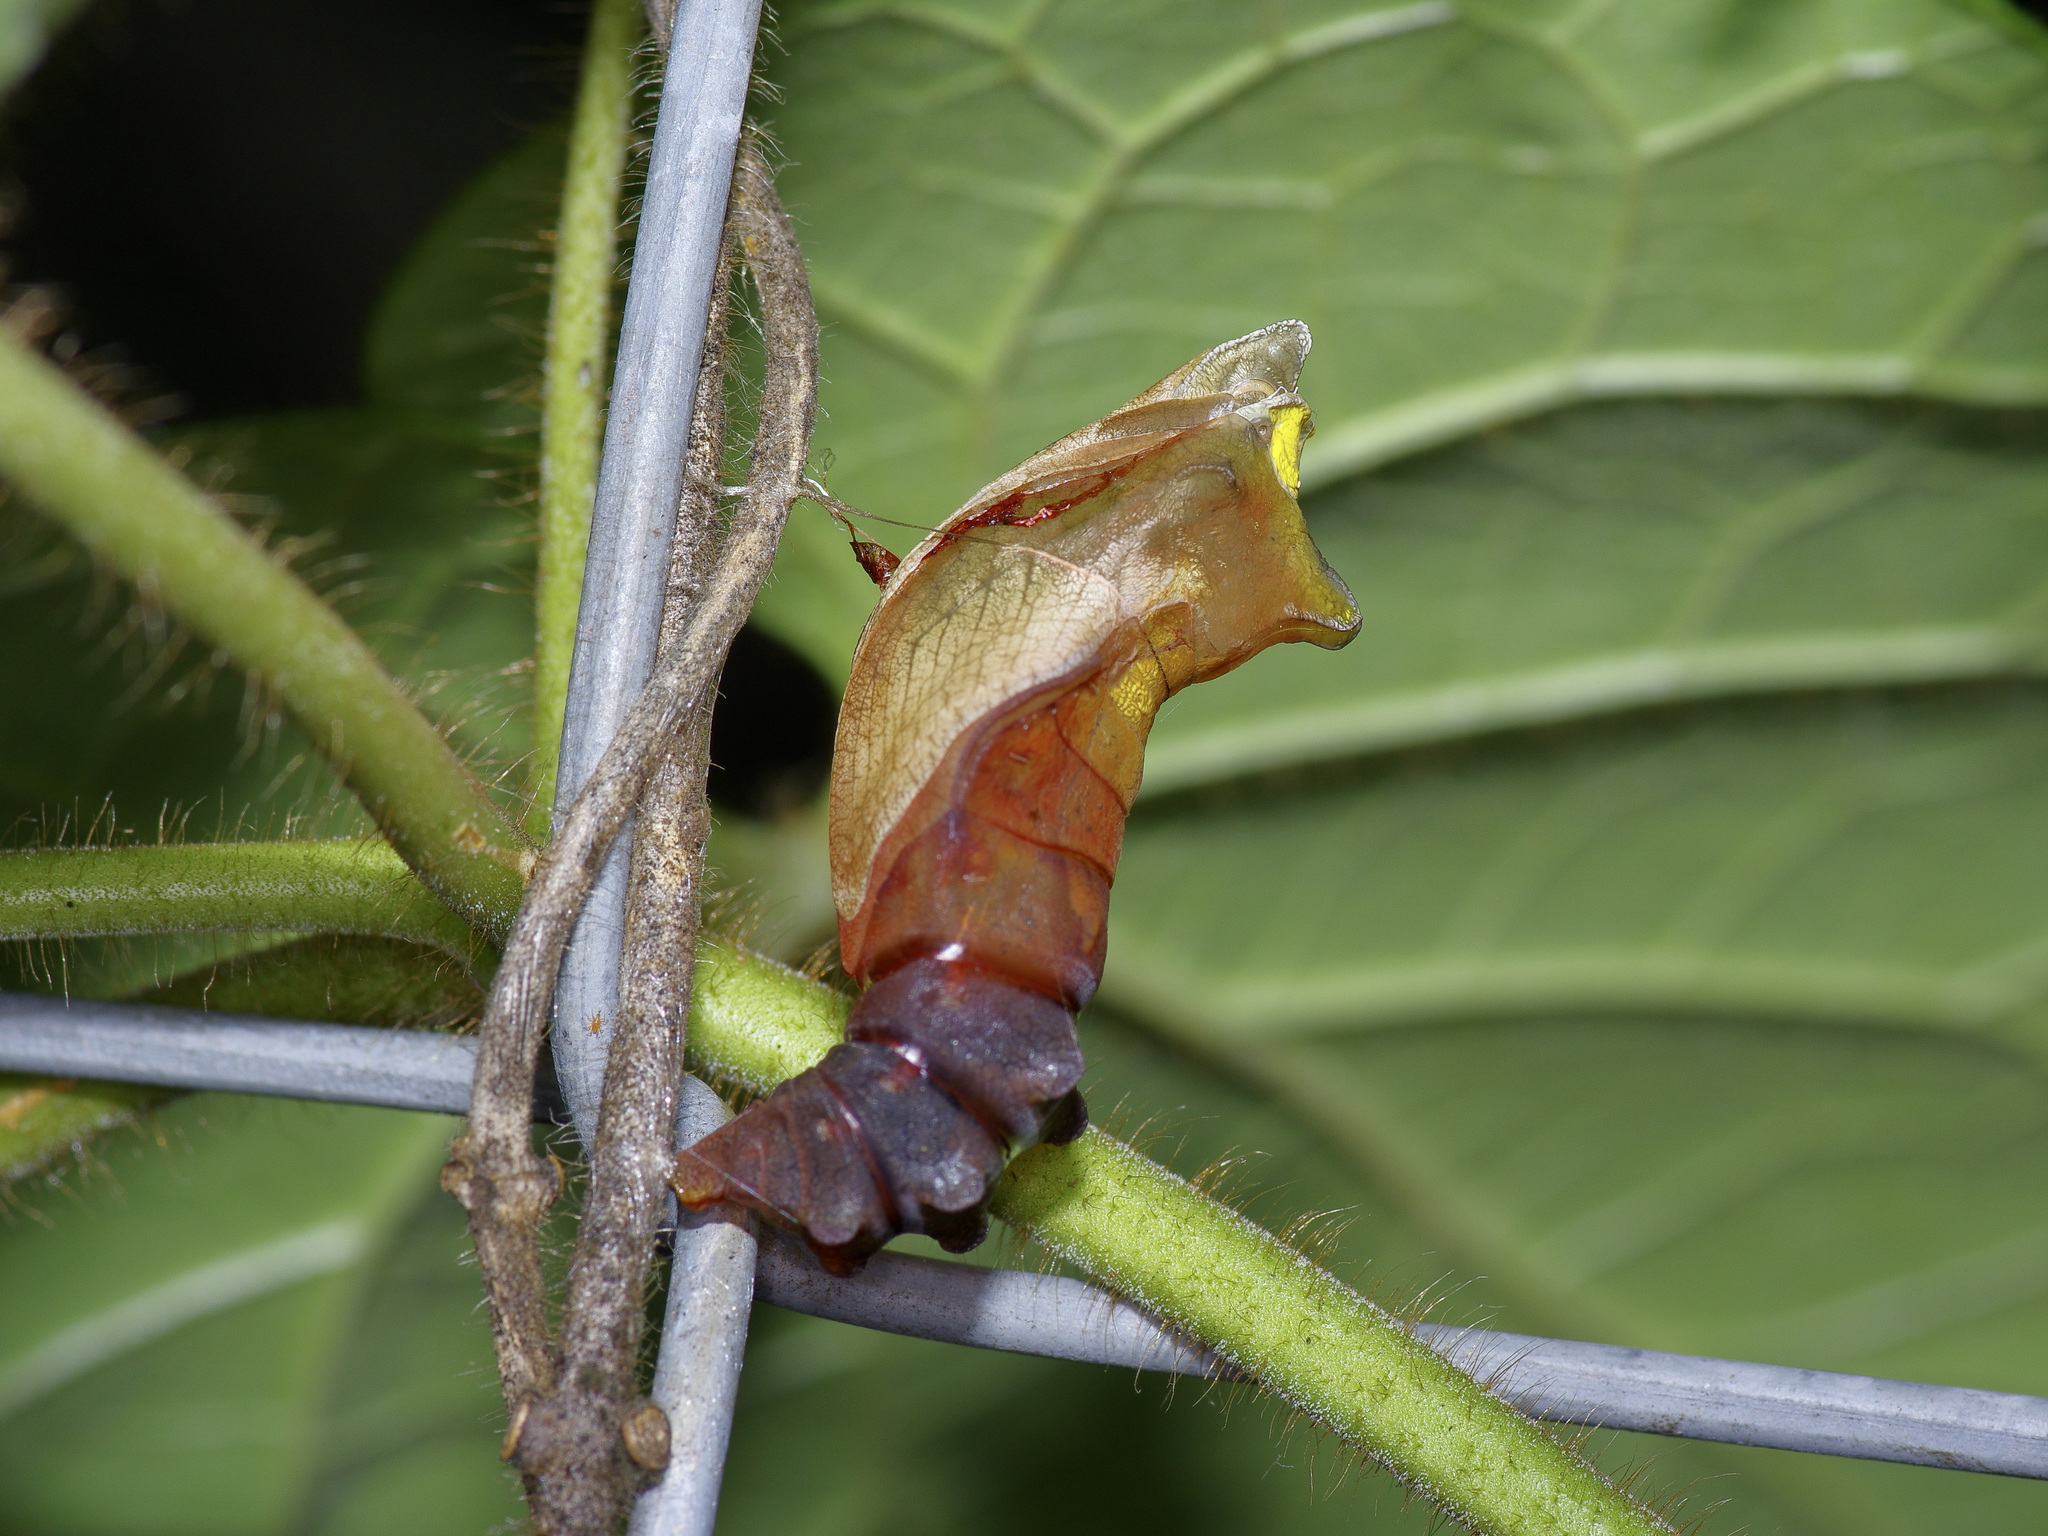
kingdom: Animalia
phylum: Arthropoda
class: Insecta
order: Lepidoptera
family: Papilionidae
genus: Battus
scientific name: Battus philenor
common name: Pipevine swallowtail
